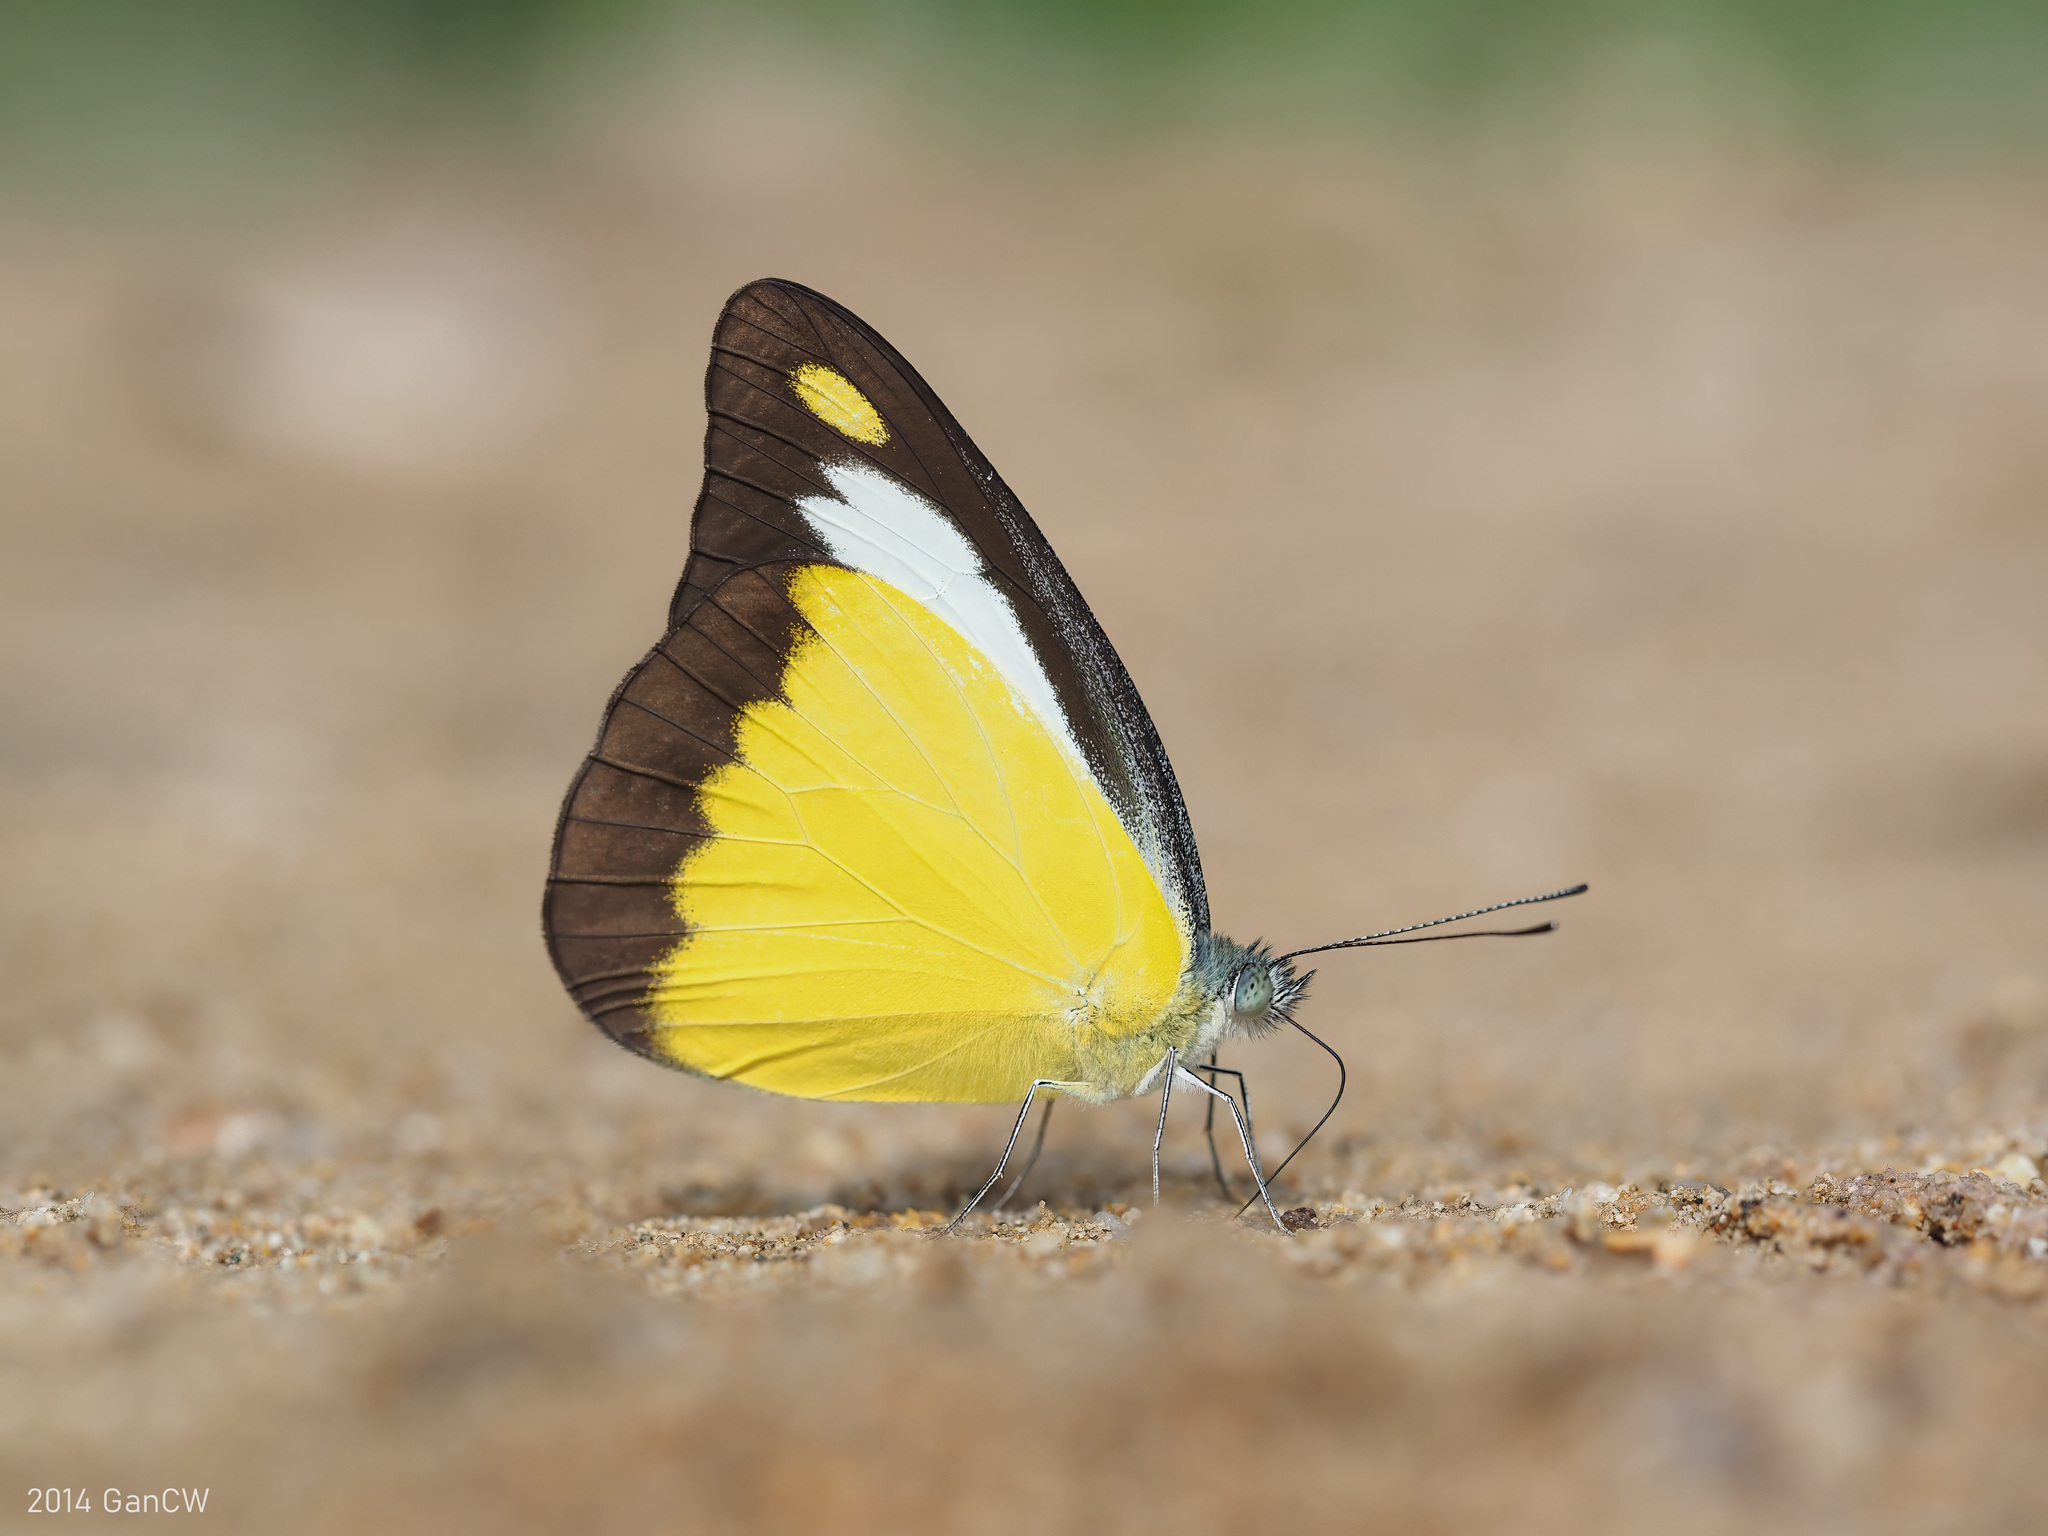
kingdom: Animalia
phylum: Arthropoda
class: Insecta
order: Lepidoptera
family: Pieridae
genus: Appias
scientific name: Appias lyncida
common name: Chocolate albatross
